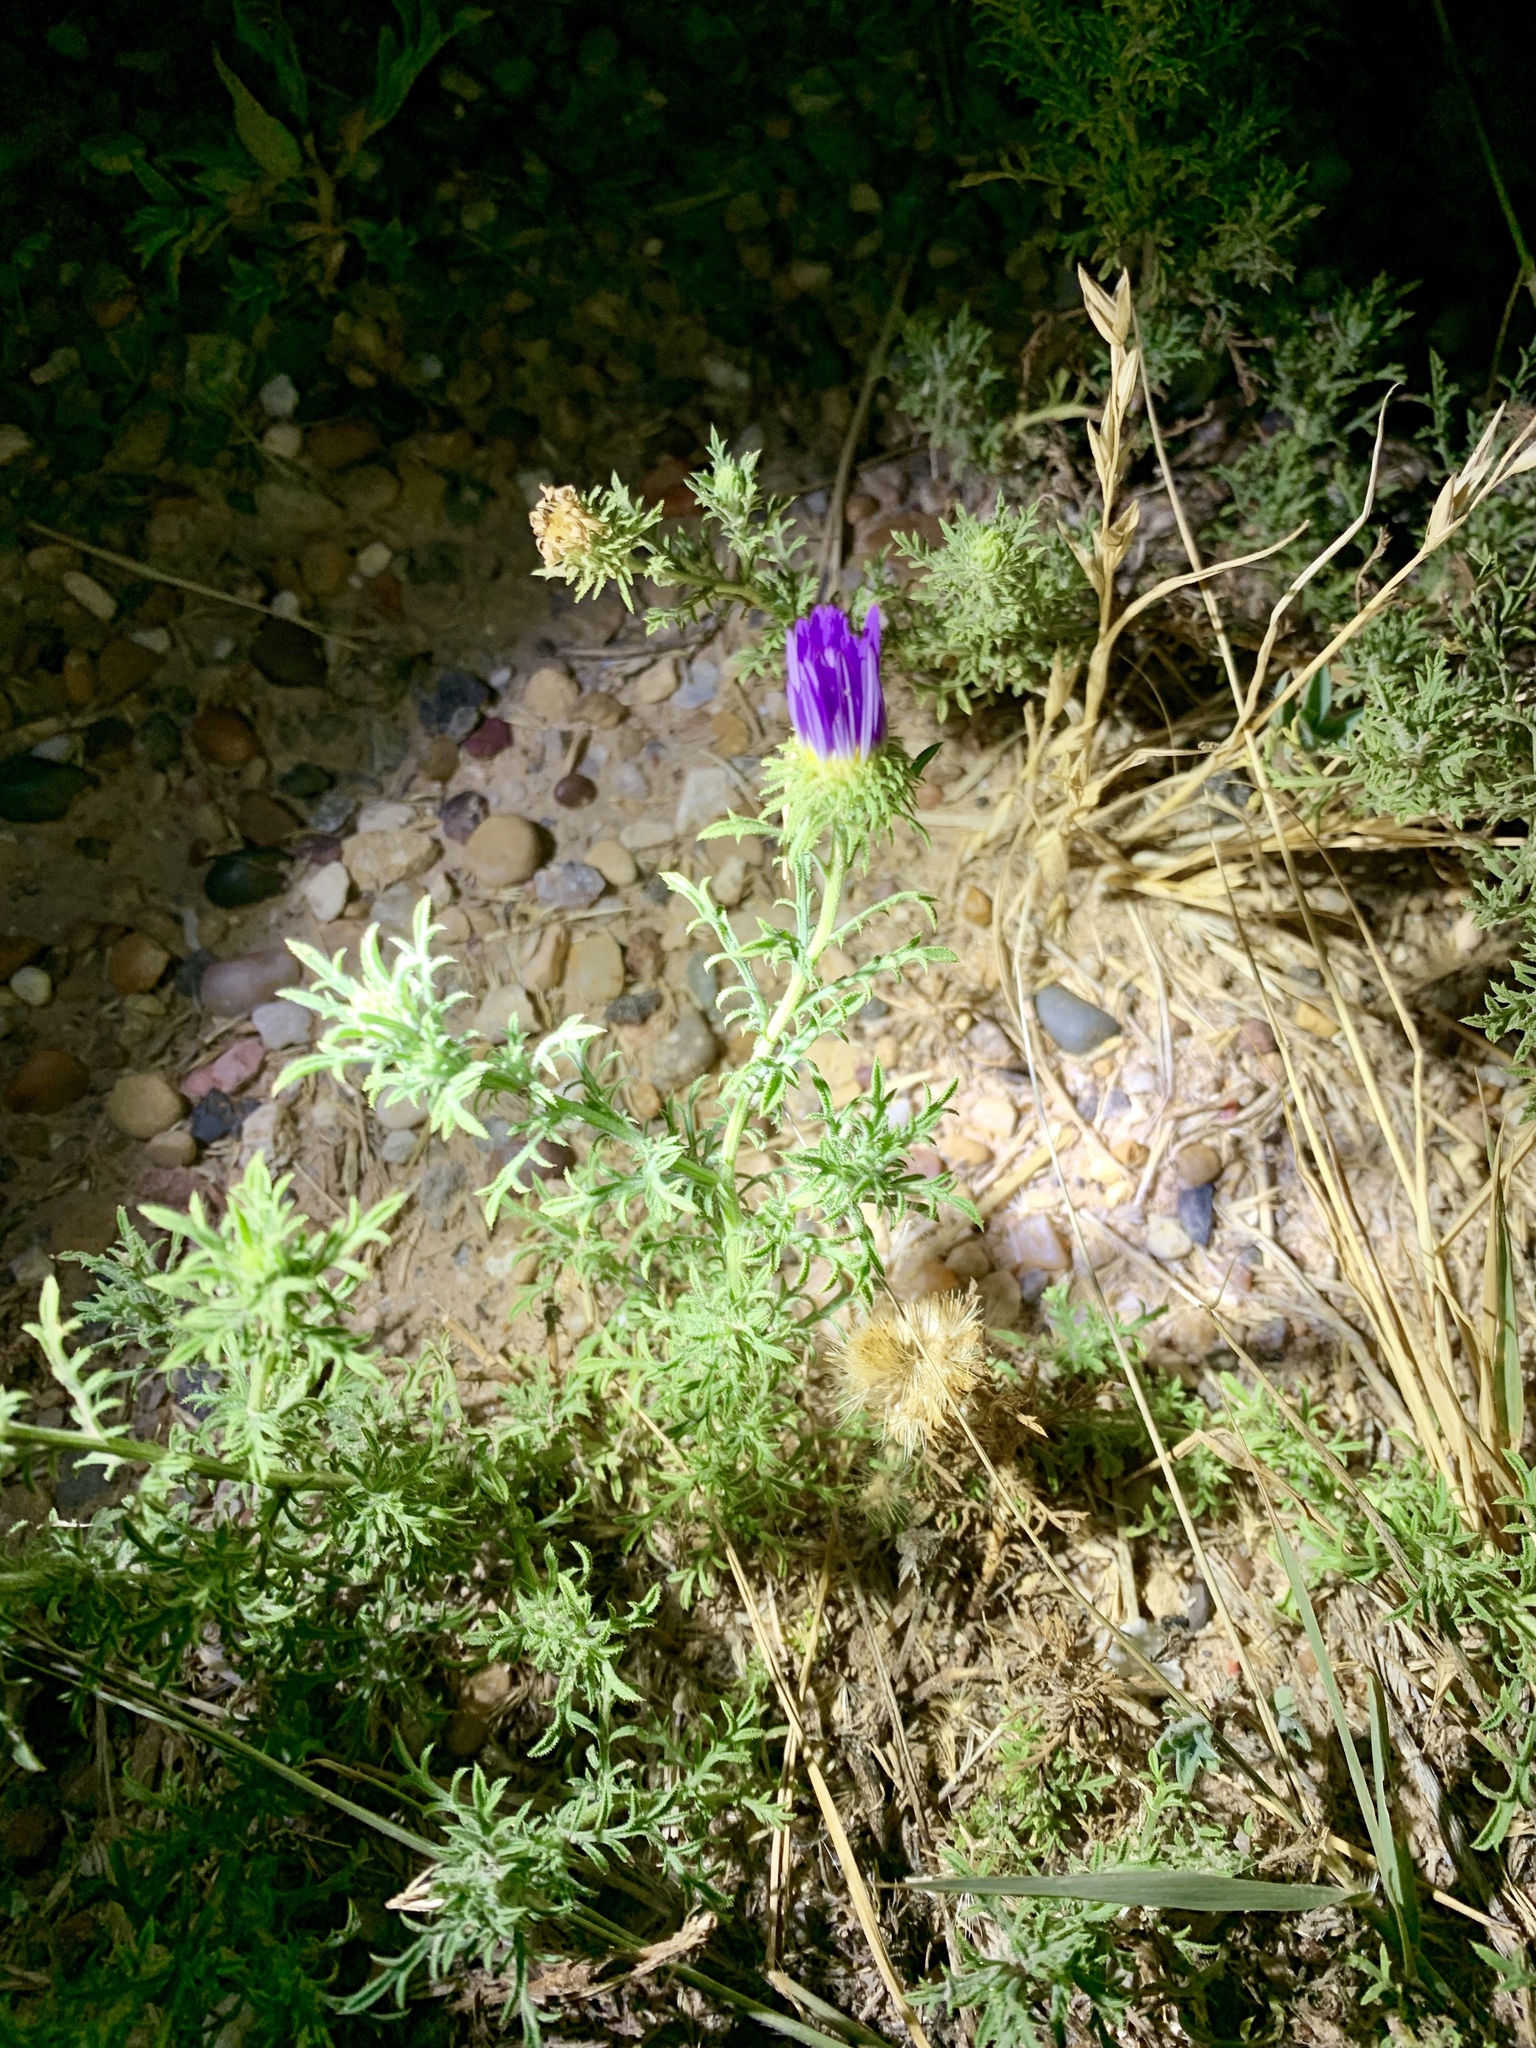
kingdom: Plantae
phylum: Tracheophyta
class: Magnoliopsida
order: Asterales
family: Asteraceae
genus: Machaeranthera
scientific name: Machaeranthera tanacetifolia
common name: Tansy-aster
